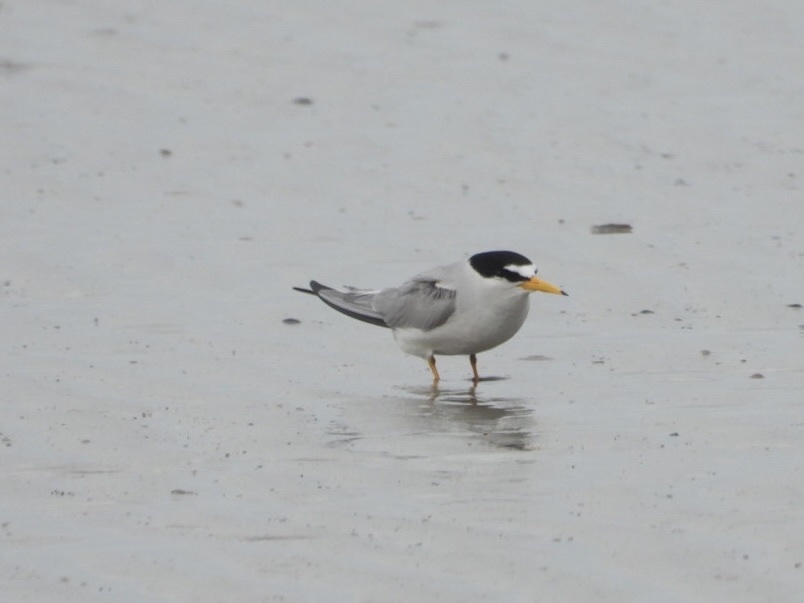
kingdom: Animalia
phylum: Chordata
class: Aves
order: Charadriiformes
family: Laridae
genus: Sternula
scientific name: Sternula antillarum
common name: Least tern
